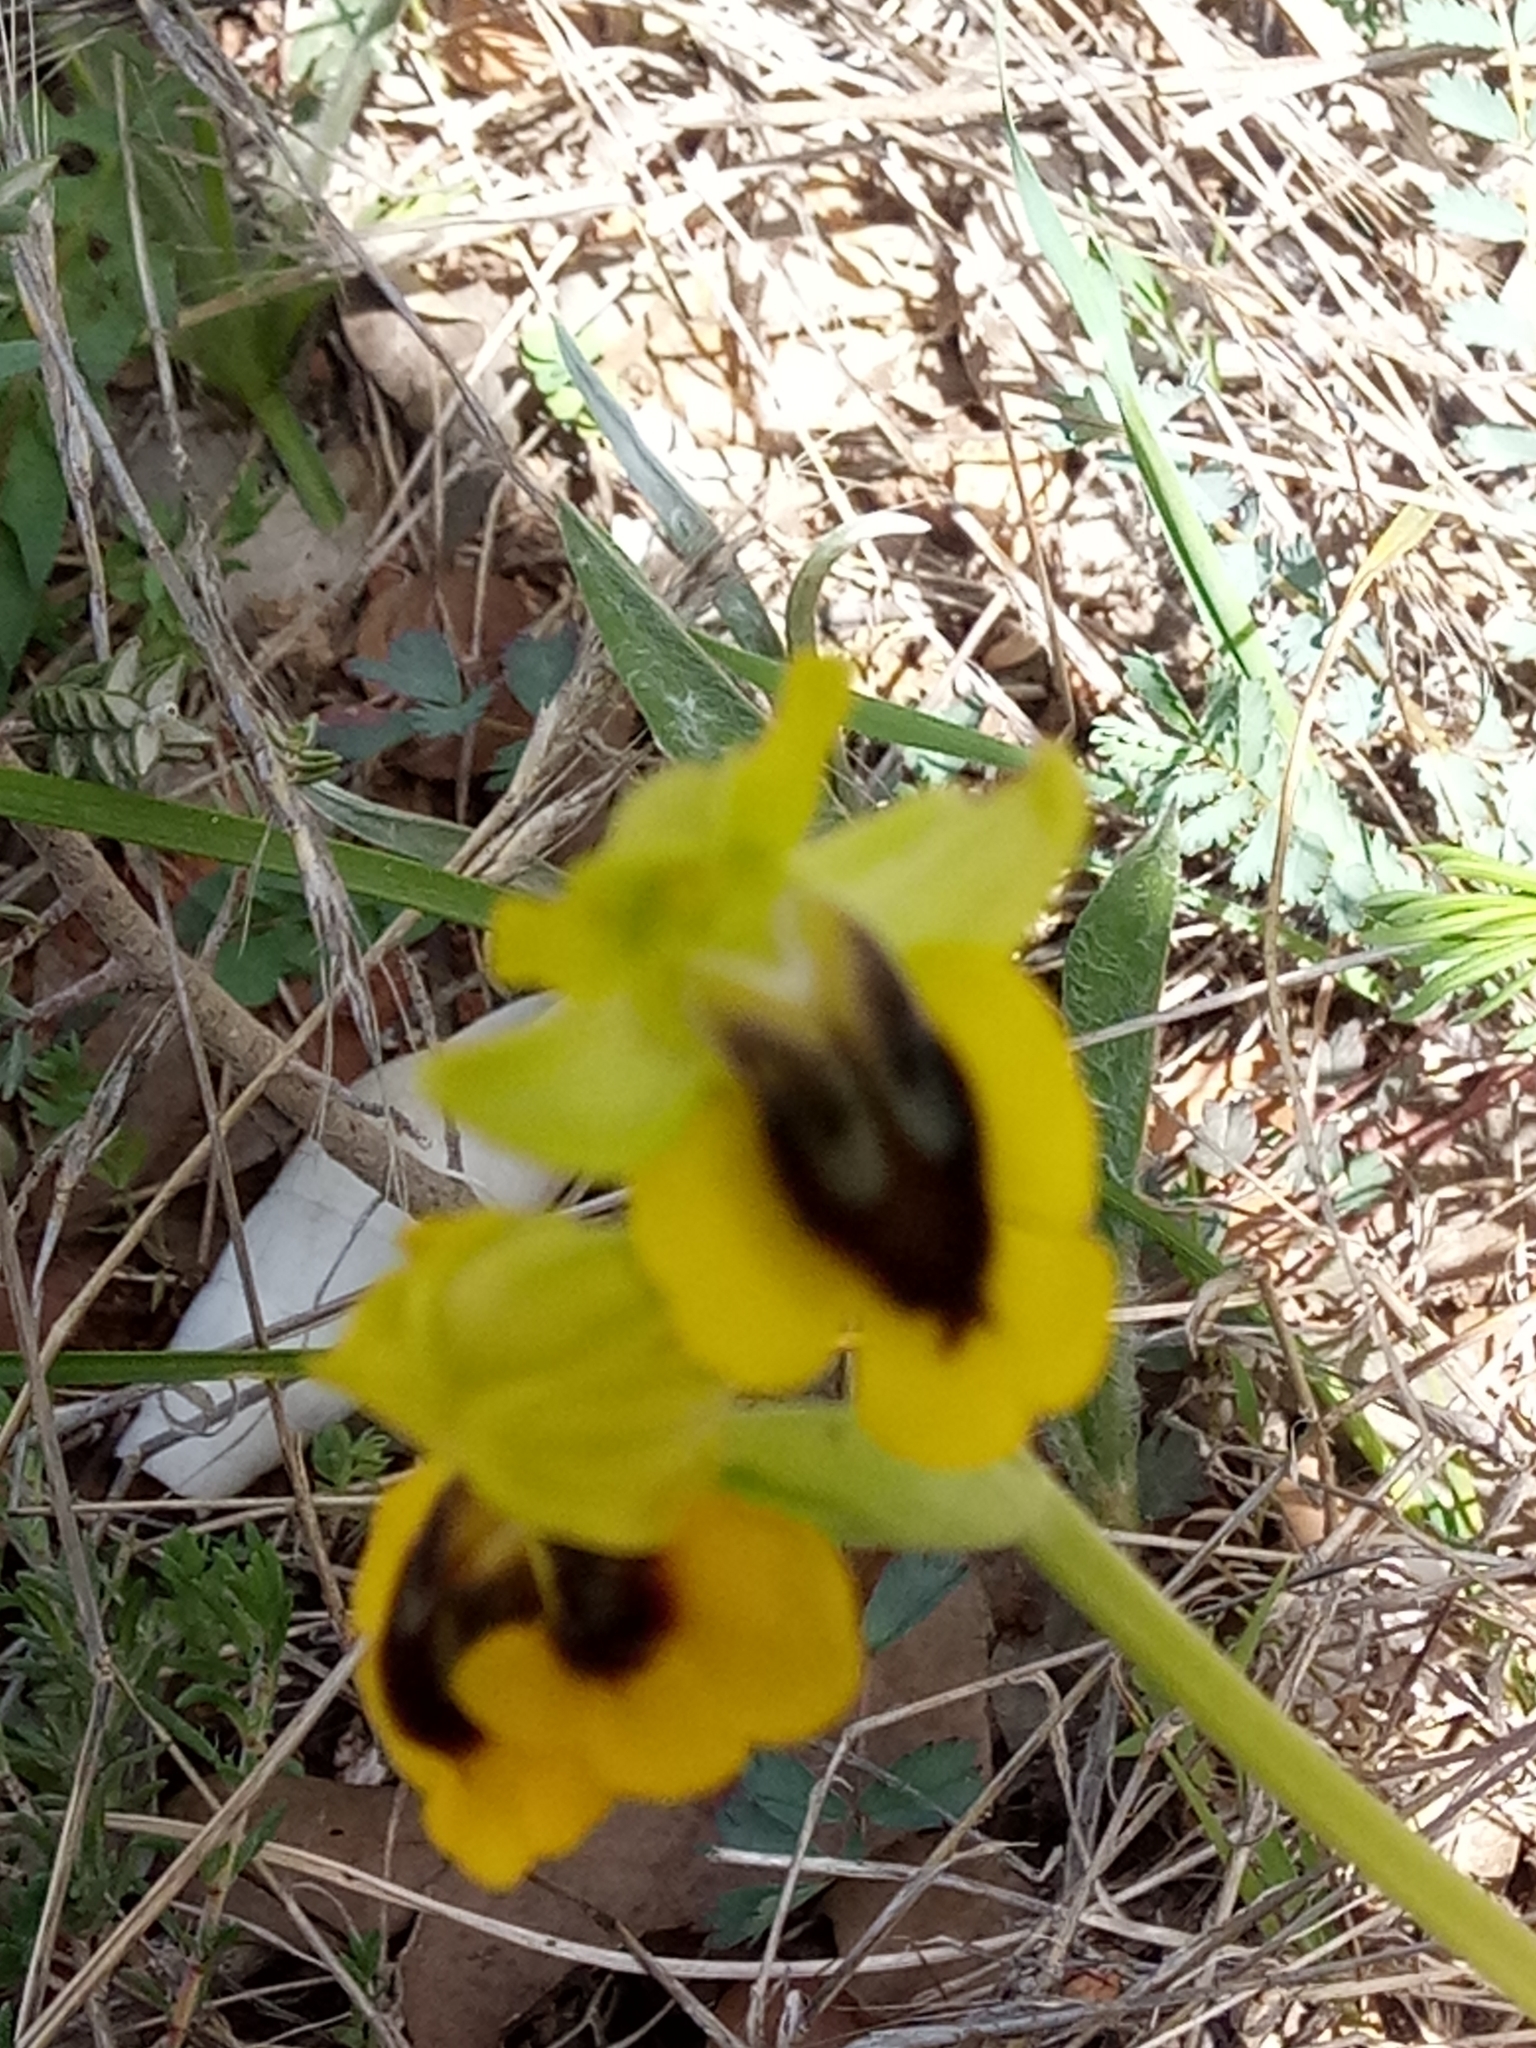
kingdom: Plantae
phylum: Tracheophyta
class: Liliopsida
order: Asparagales
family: Orchidaceae
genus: Ophrys
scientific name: Ophrys lutea
